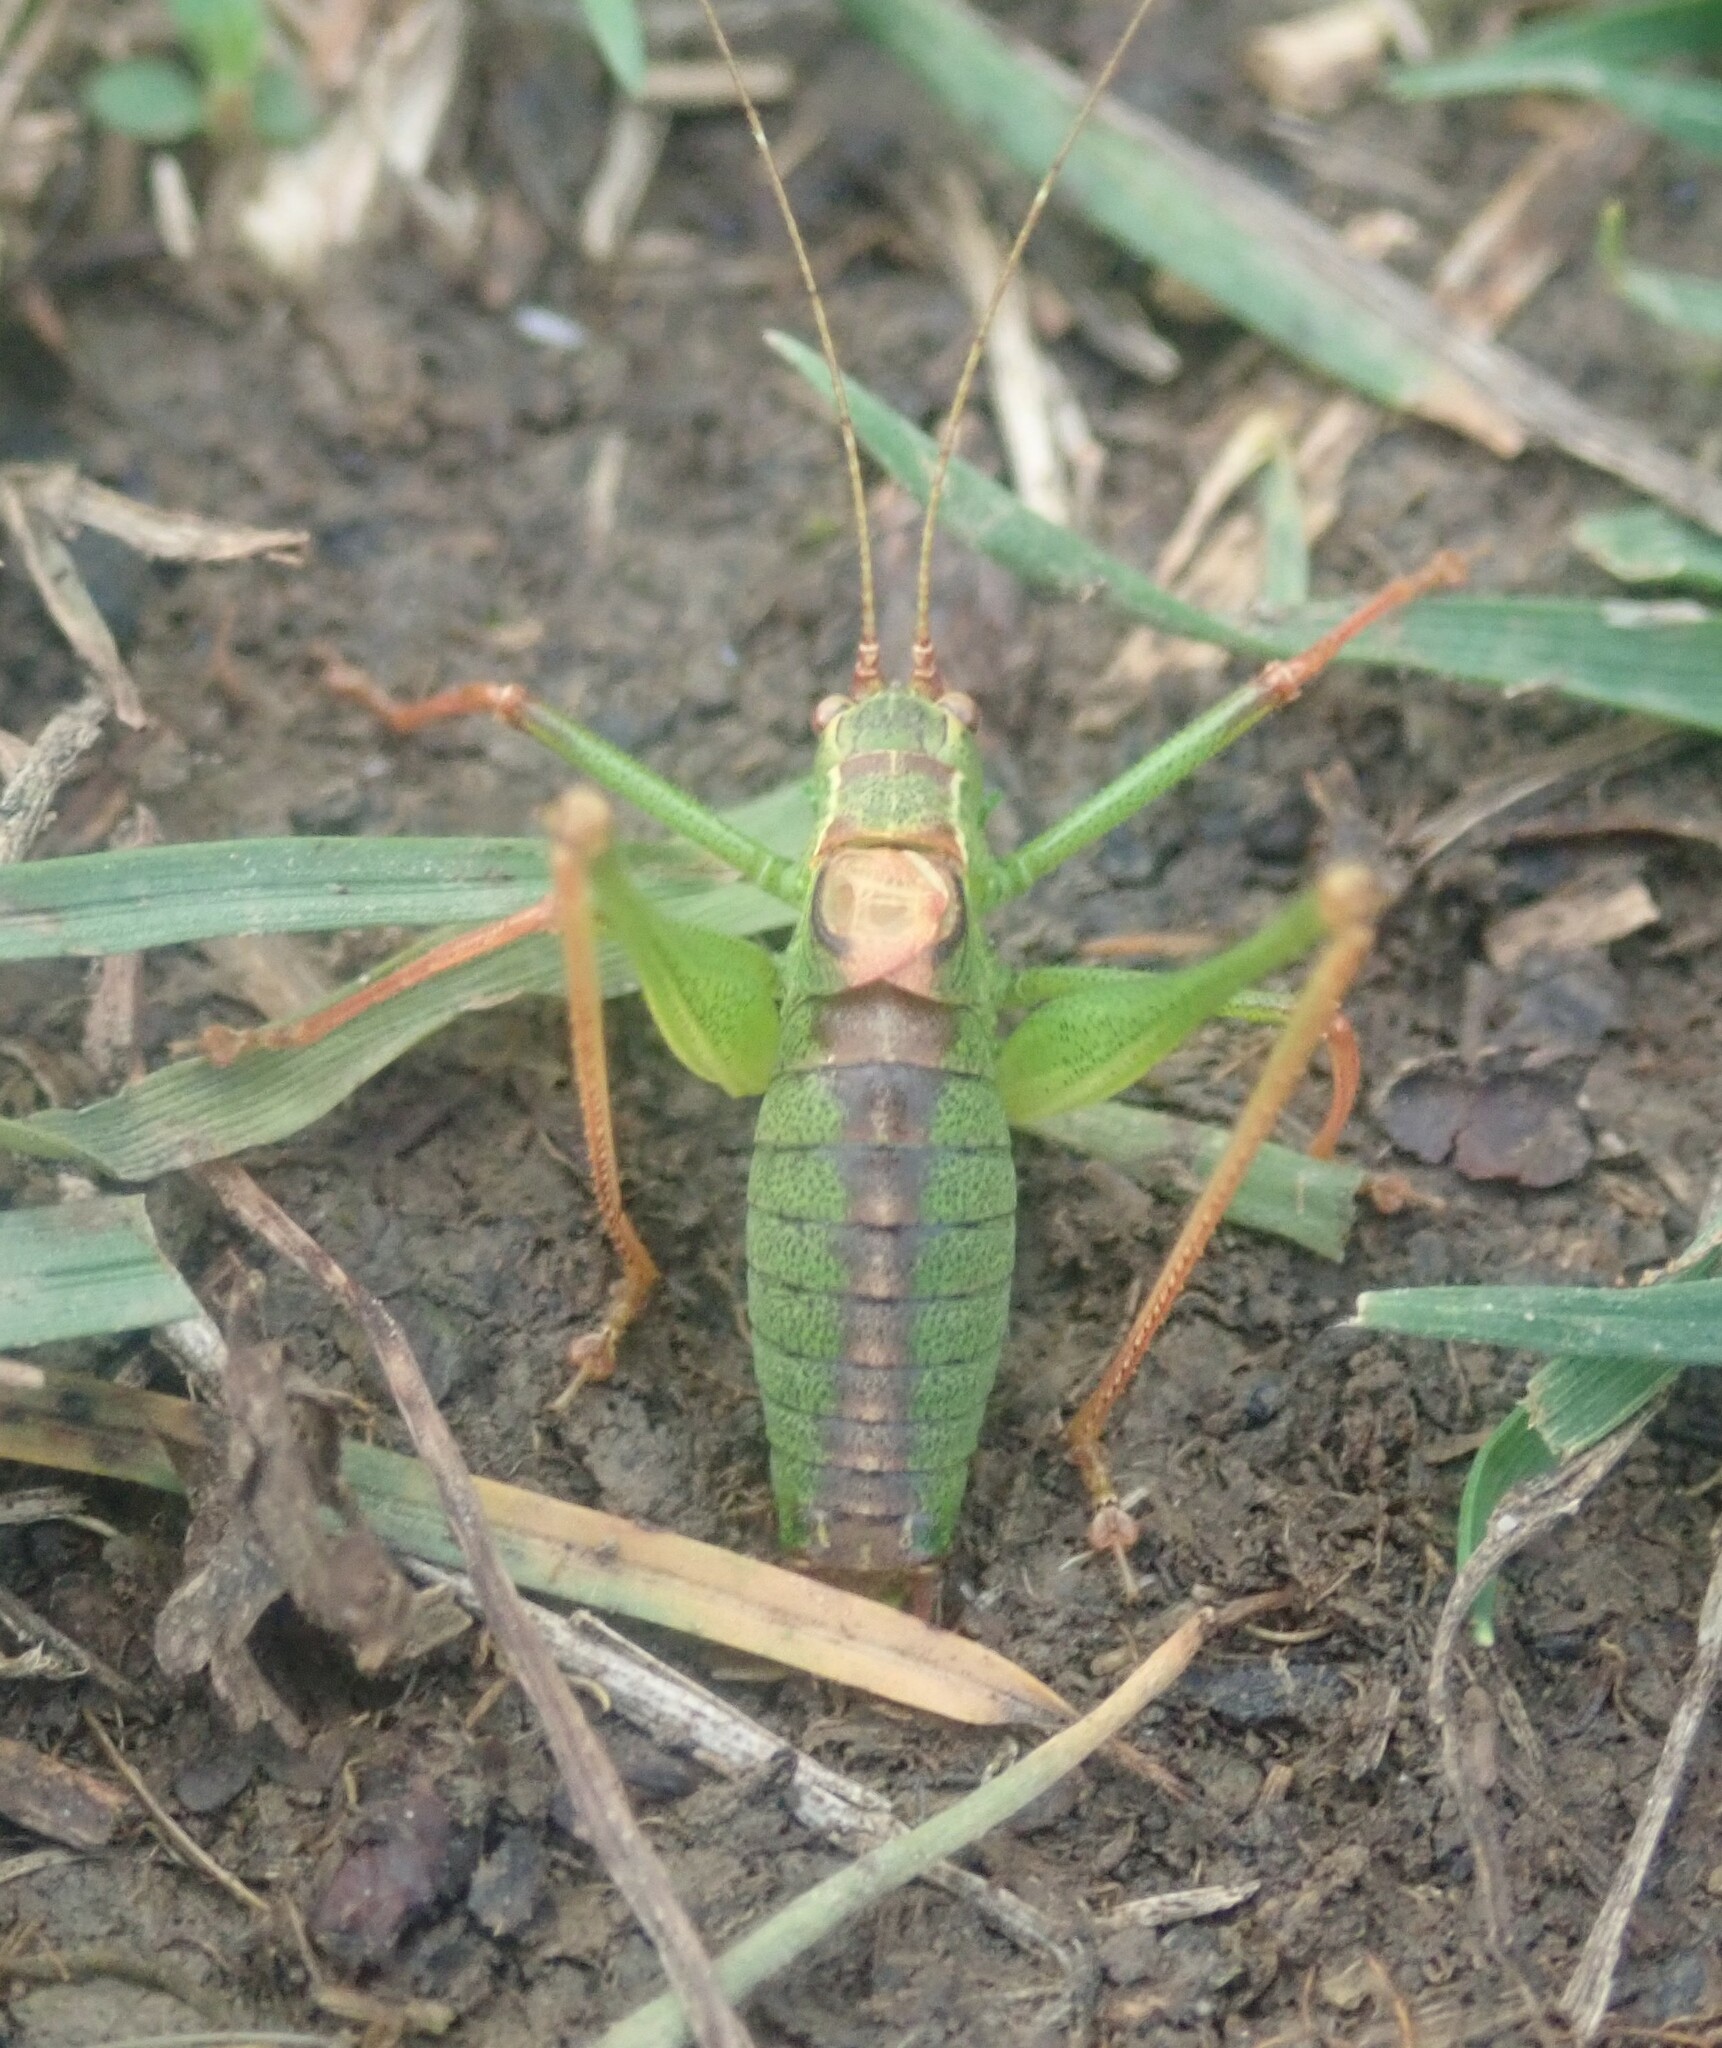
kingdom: Animalia
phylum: Arthropoda
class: Insecta
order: Orthoptera
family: Tettigoniidae
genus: Leptophyes
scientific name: Leptophyes punctatissima
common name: Speckled bush-cricket
